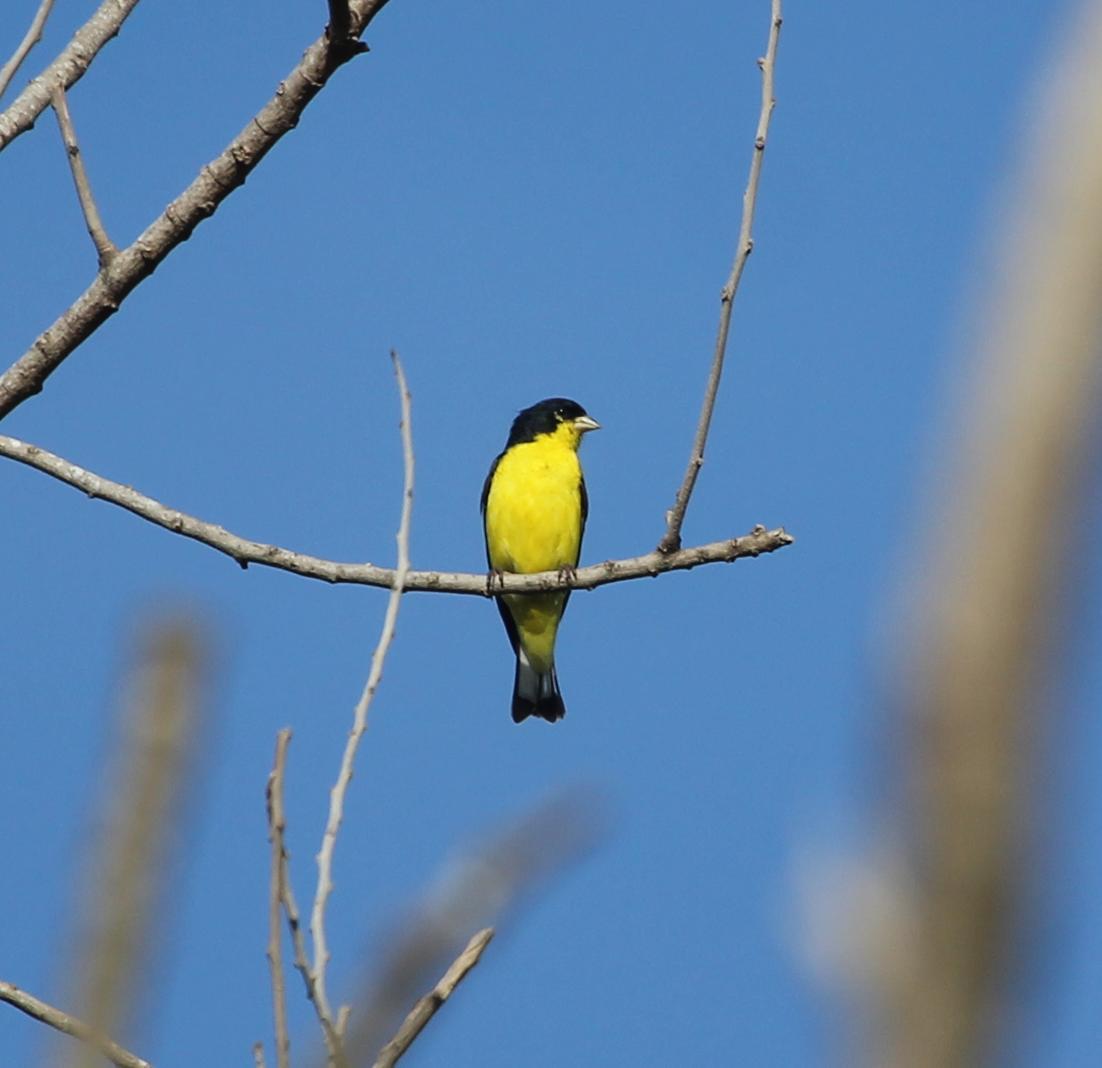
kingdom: Animalia
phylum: Chordata
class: Aves
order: Passeriformes
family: Fringillidae
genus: Spinus
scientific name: Spinus psaltria
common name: Lesser goldfinch
